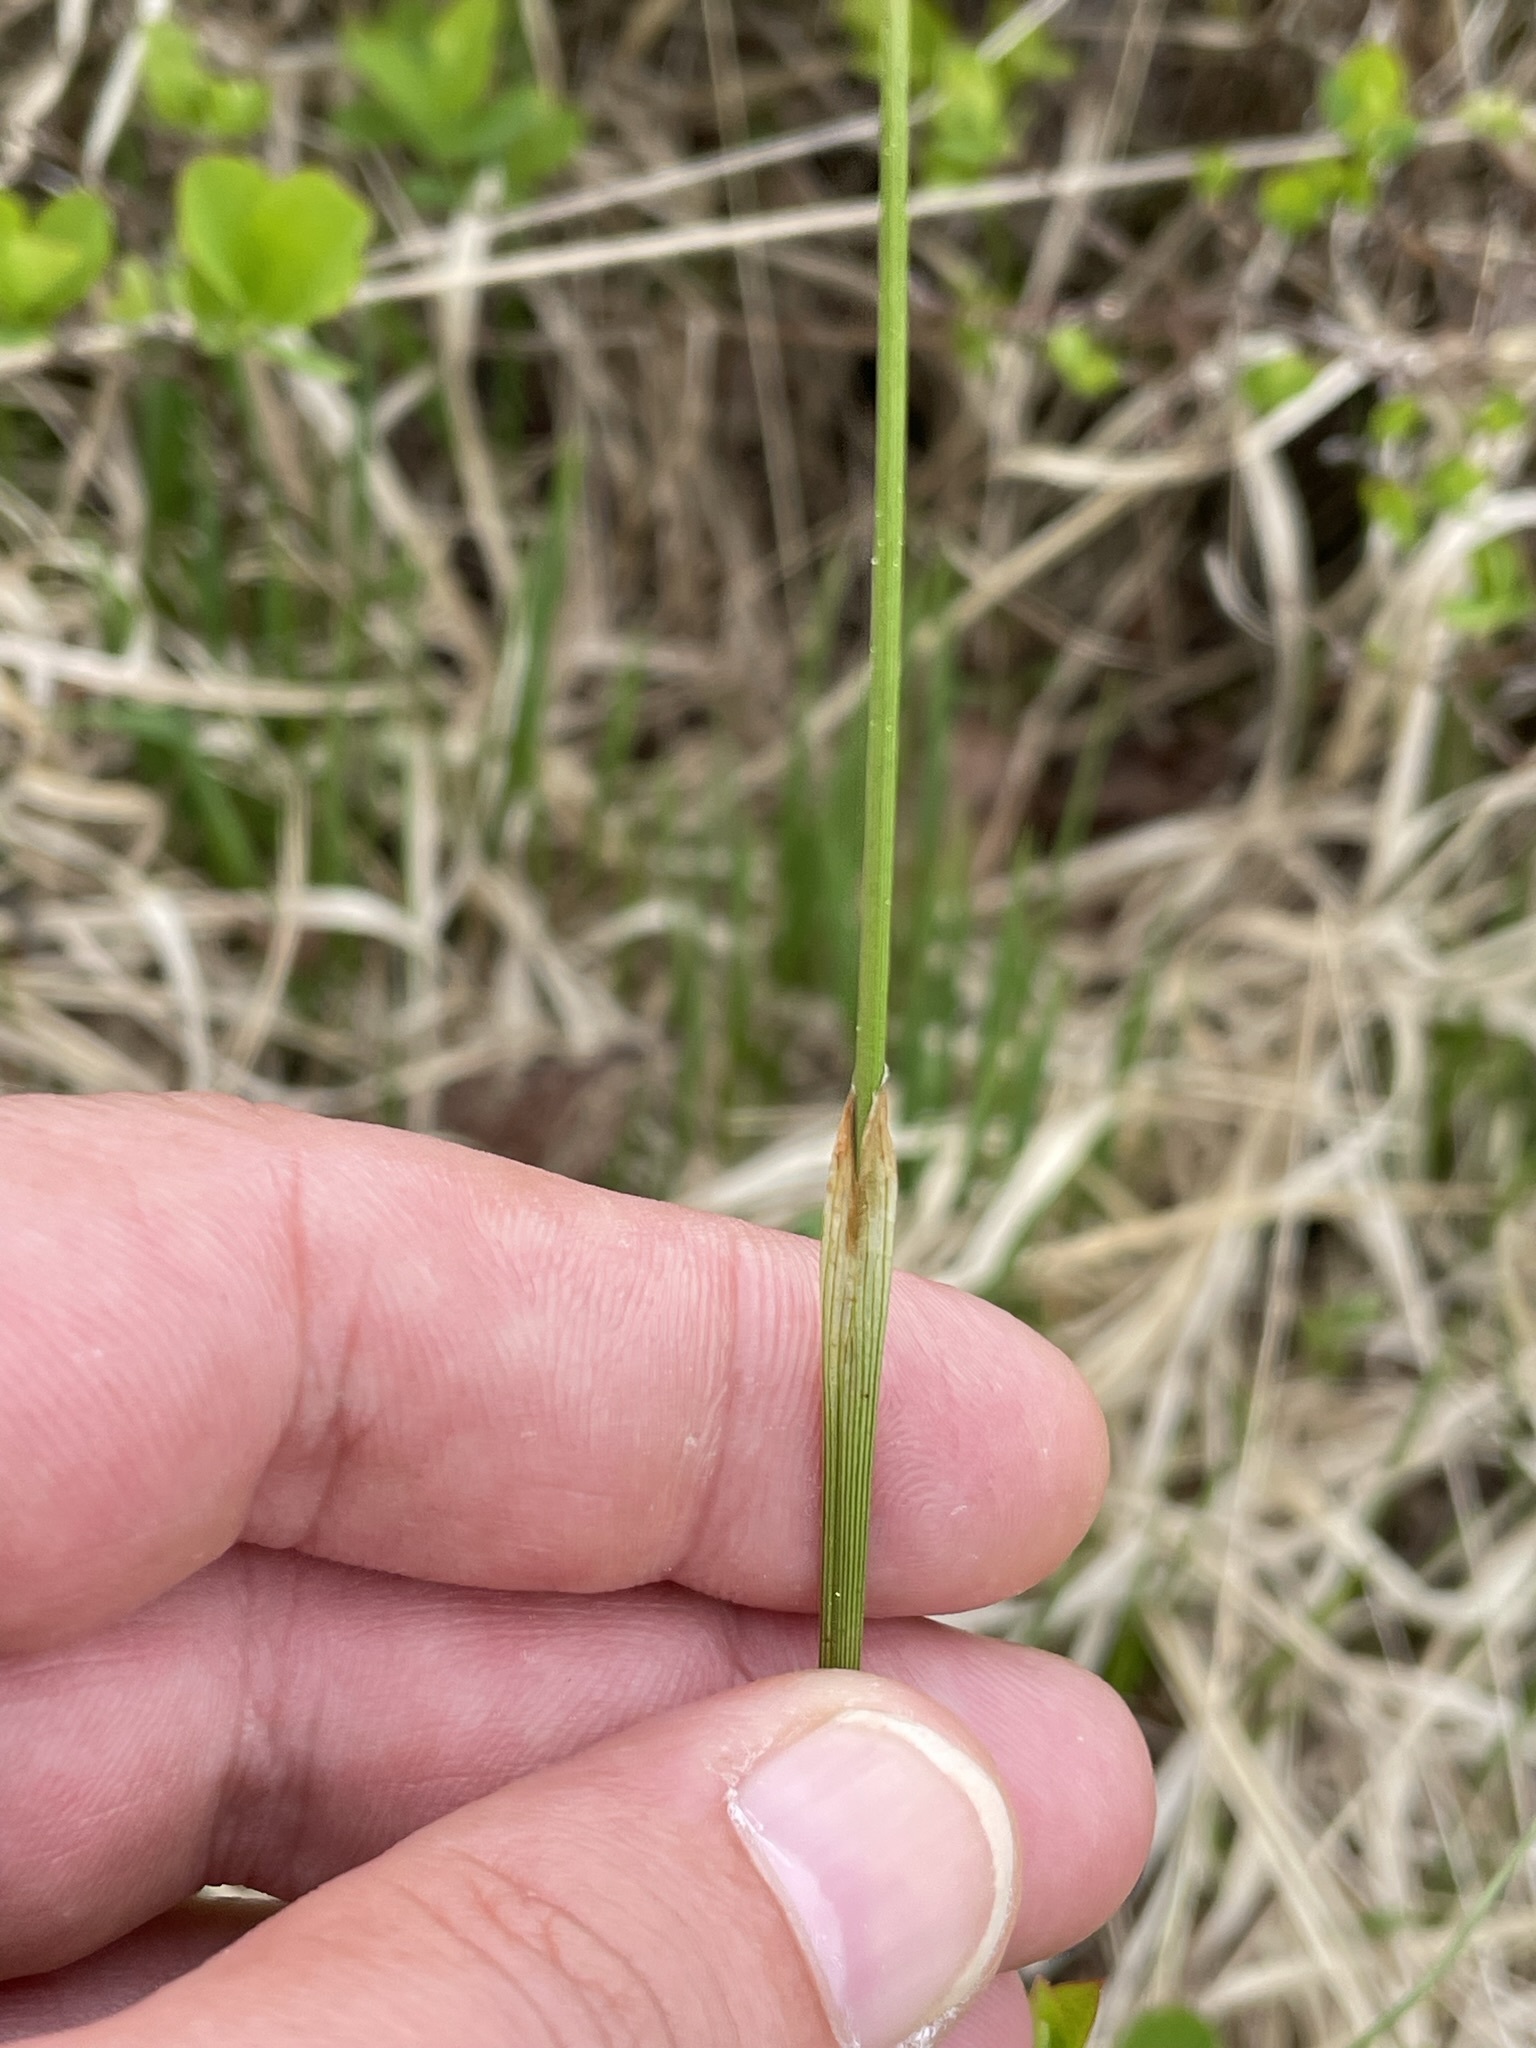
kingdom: Plantae
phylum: Tracheophyta
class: Liliopsida
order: Poales
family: Cyperaceae
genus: Eriophorum
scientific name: Eriophorum vaginatum
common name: Hare's-tail cottongrass
